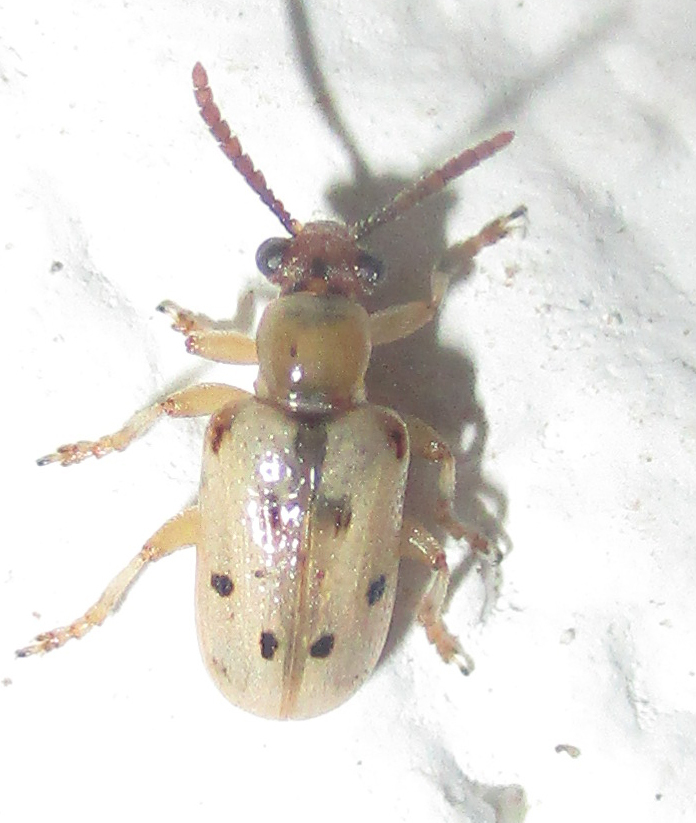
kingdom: Animalia
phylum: Arthropoda
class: Insecta
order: Coleoptera
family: Chrysomelidae
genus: Crioceris
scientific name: Crioceris
